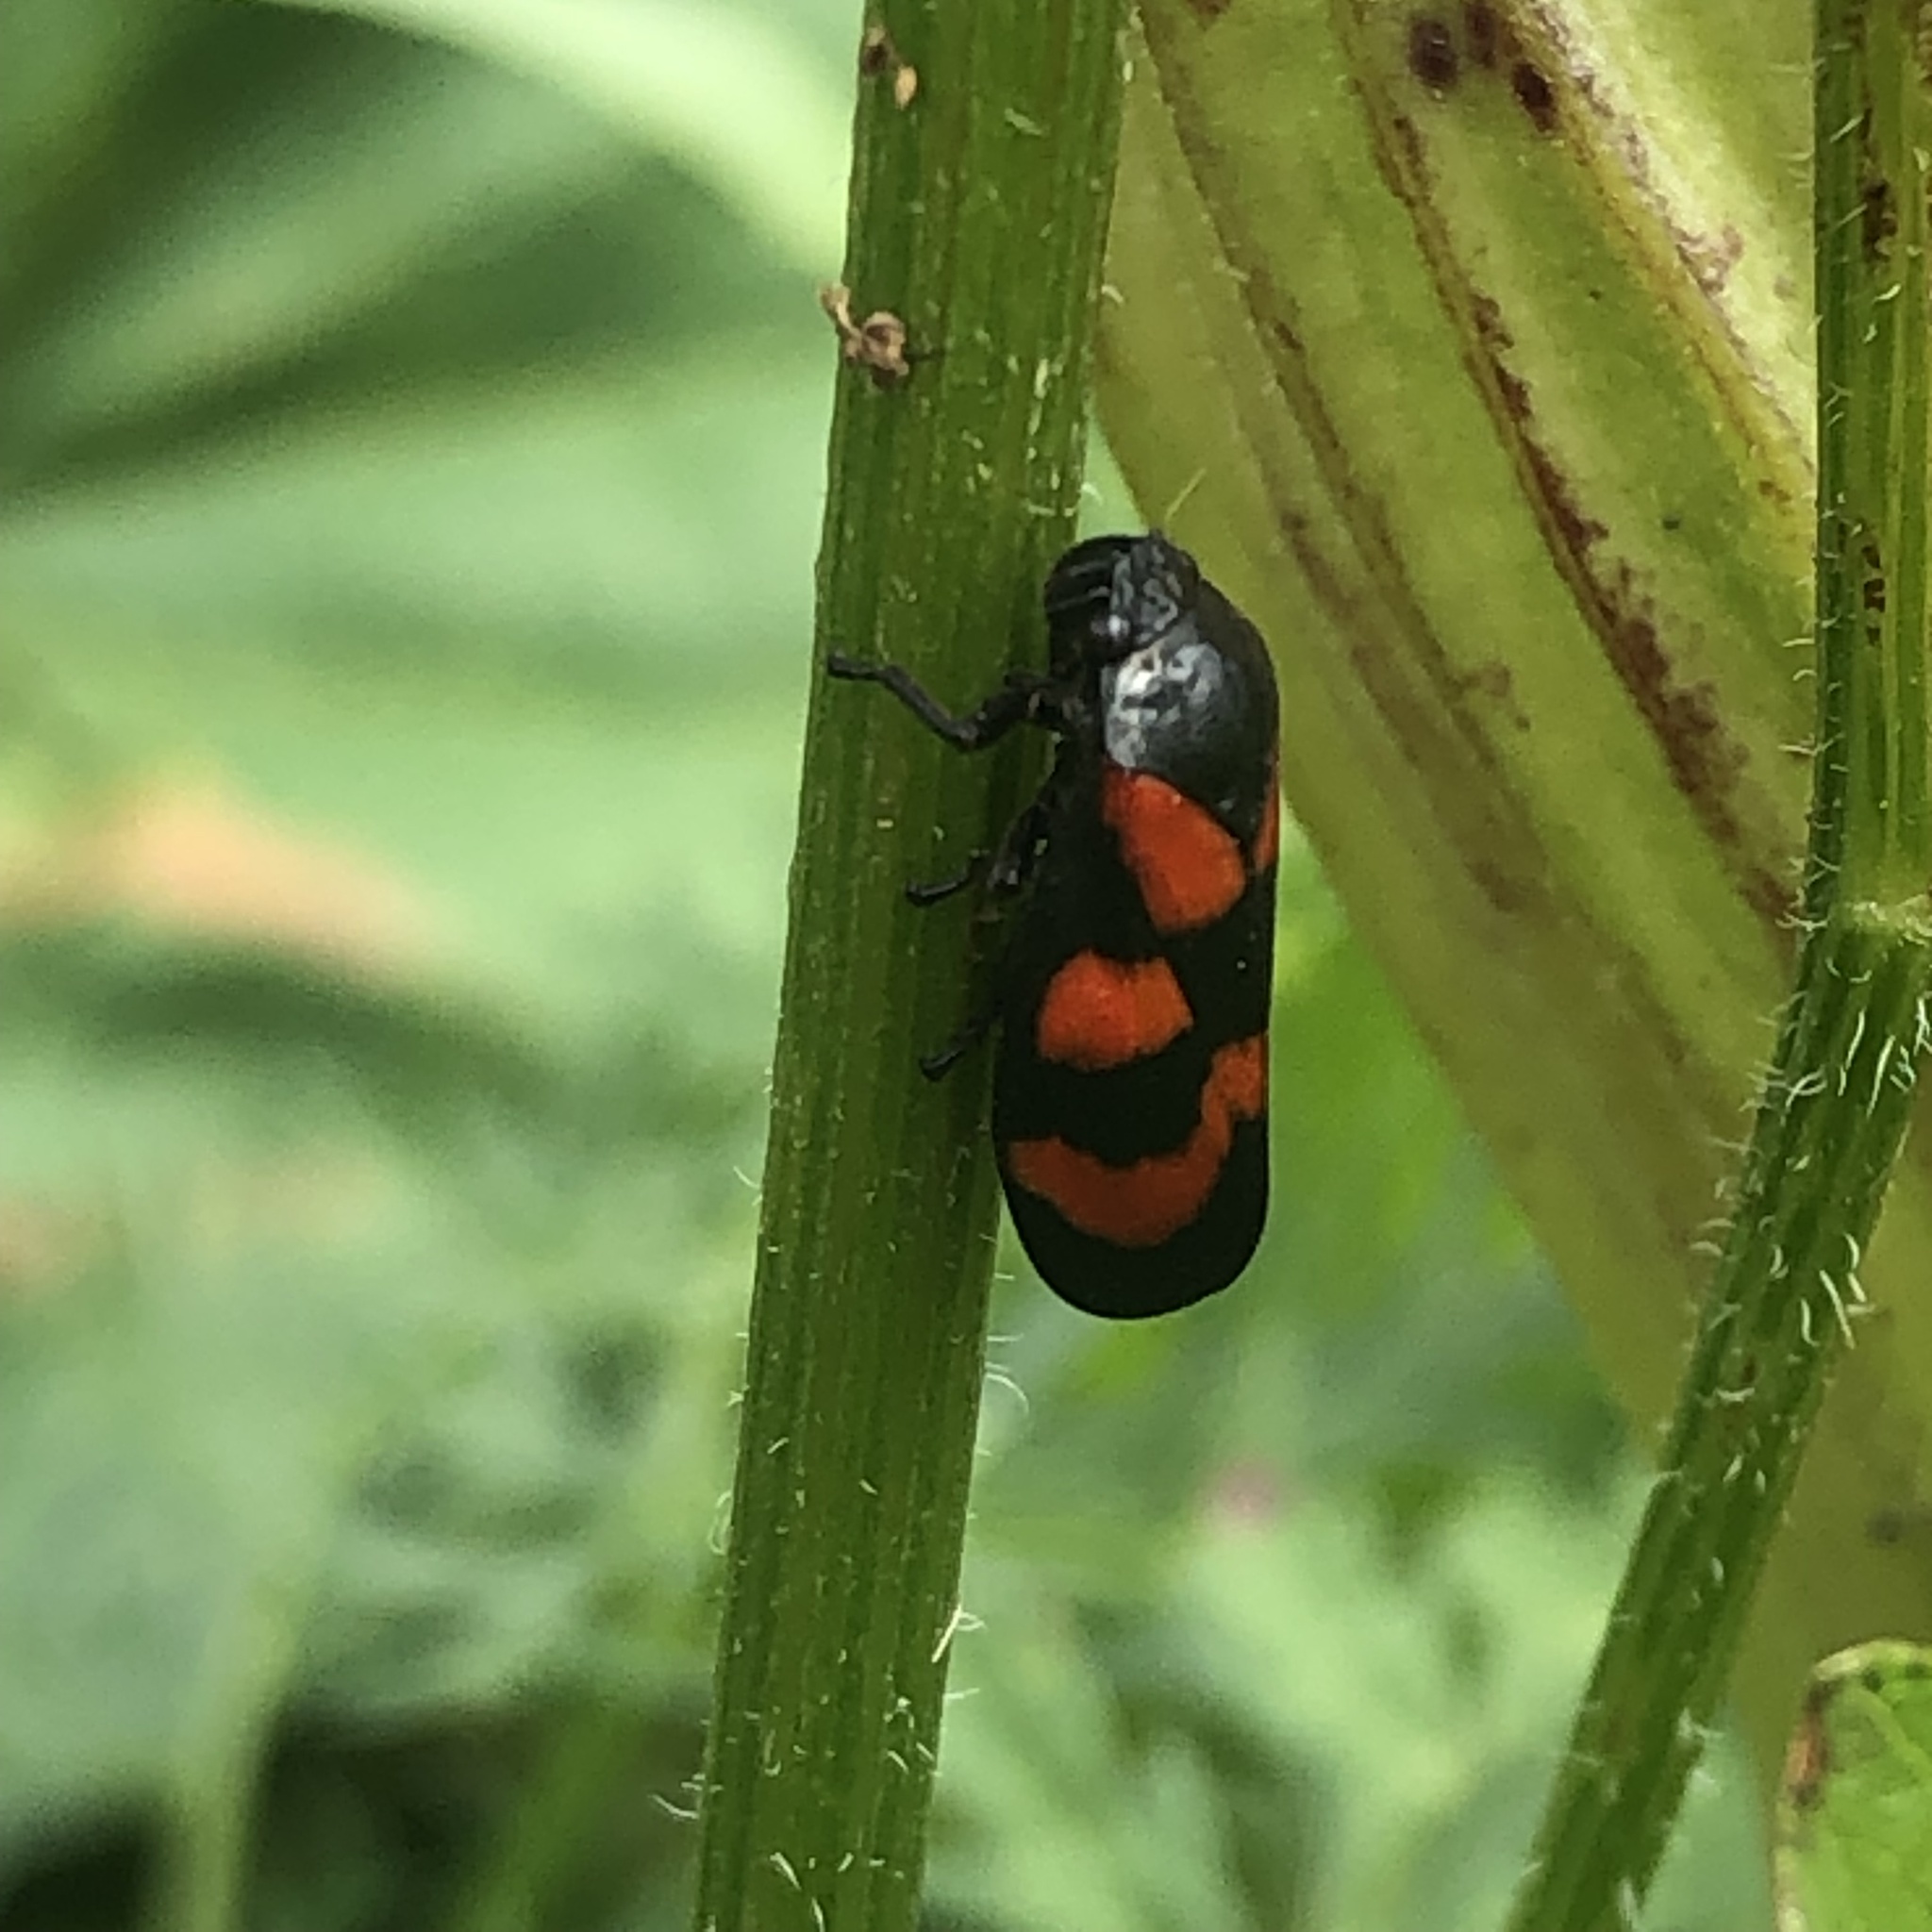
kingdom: Animalia
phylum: Arthropoda
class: Insecta
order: Hemiptera
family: Cercopidae
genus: Cercopis
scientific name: Cercopis vulnerata
